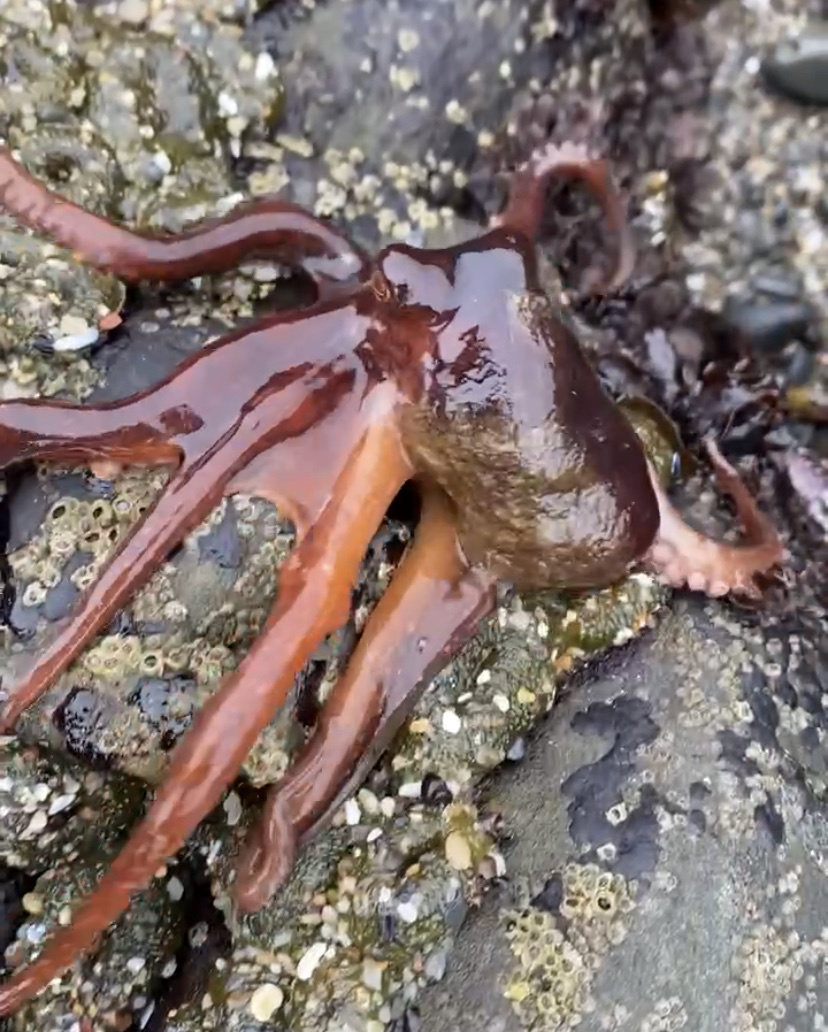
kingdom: Animalia
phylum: Mollusca
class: Cephalopoda
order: Octopoda
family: Octopodidae
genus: Octopus
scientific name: Octopus rubescens
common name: East pacific red octopus
